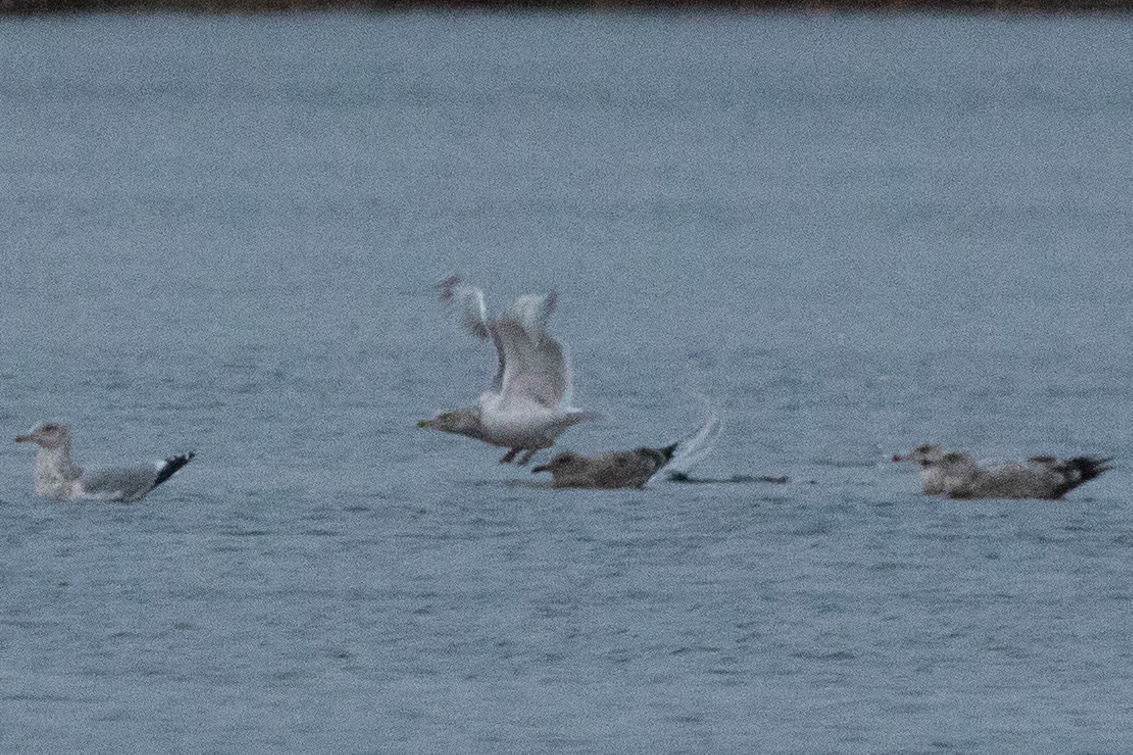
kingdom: Animalia
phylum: Chordata
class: Aves
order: Charadriiformes
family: Laridae
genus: Larus
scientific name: Larus argentatus
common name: Herring gull
